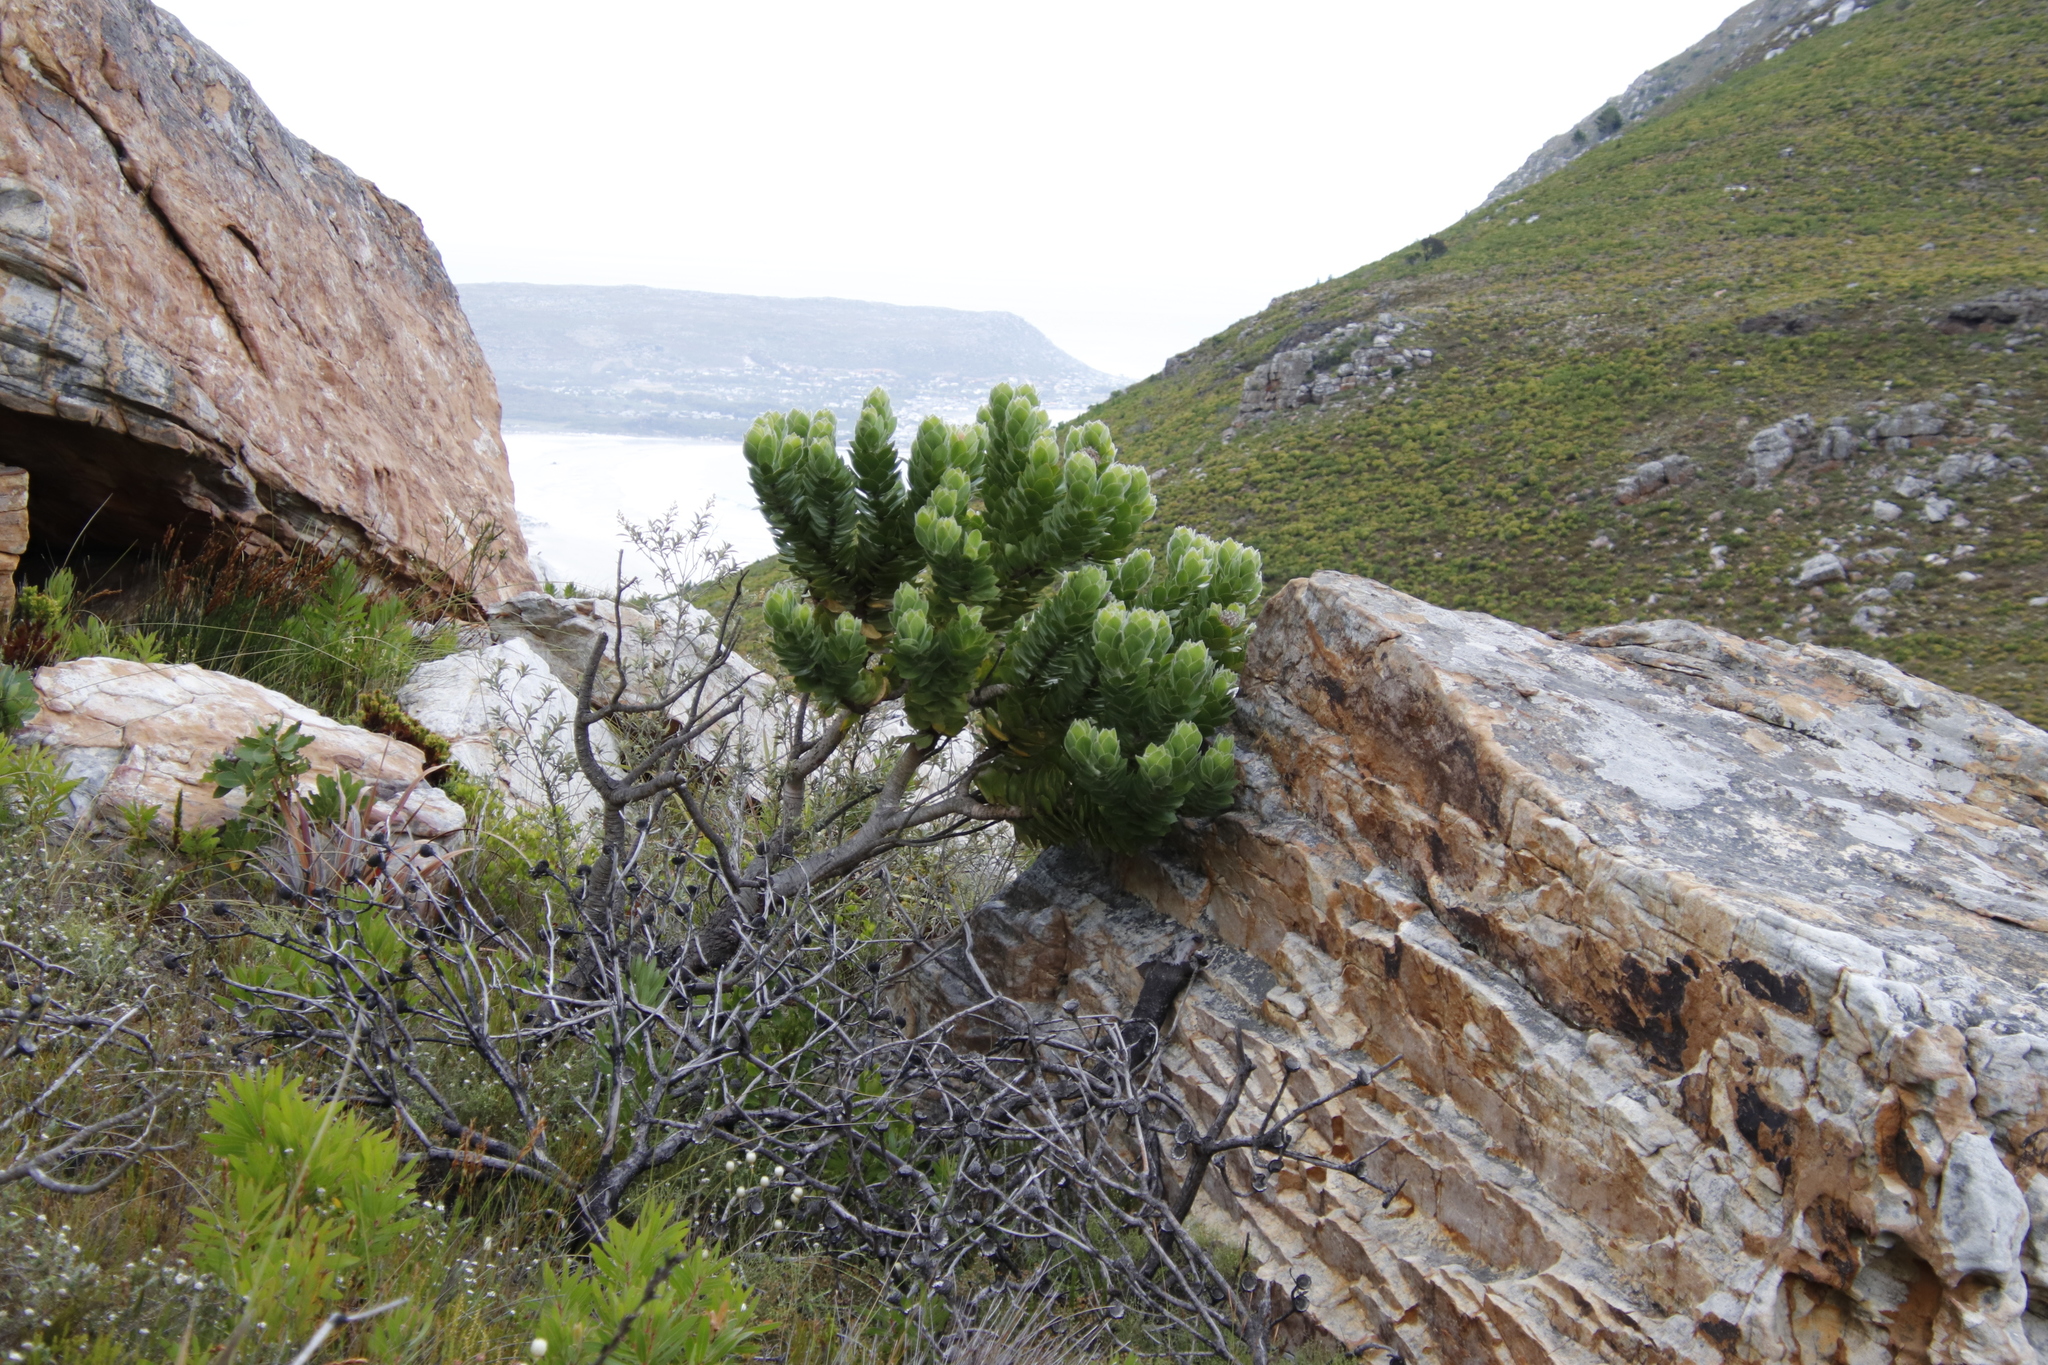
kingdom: Plantae
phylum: Tracheophyta
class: Magnoliopsida
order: Proteales
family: Proteaceae
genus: Leucospermum
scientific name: Leucospermum conocarpodendron
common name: Tree pincushion
